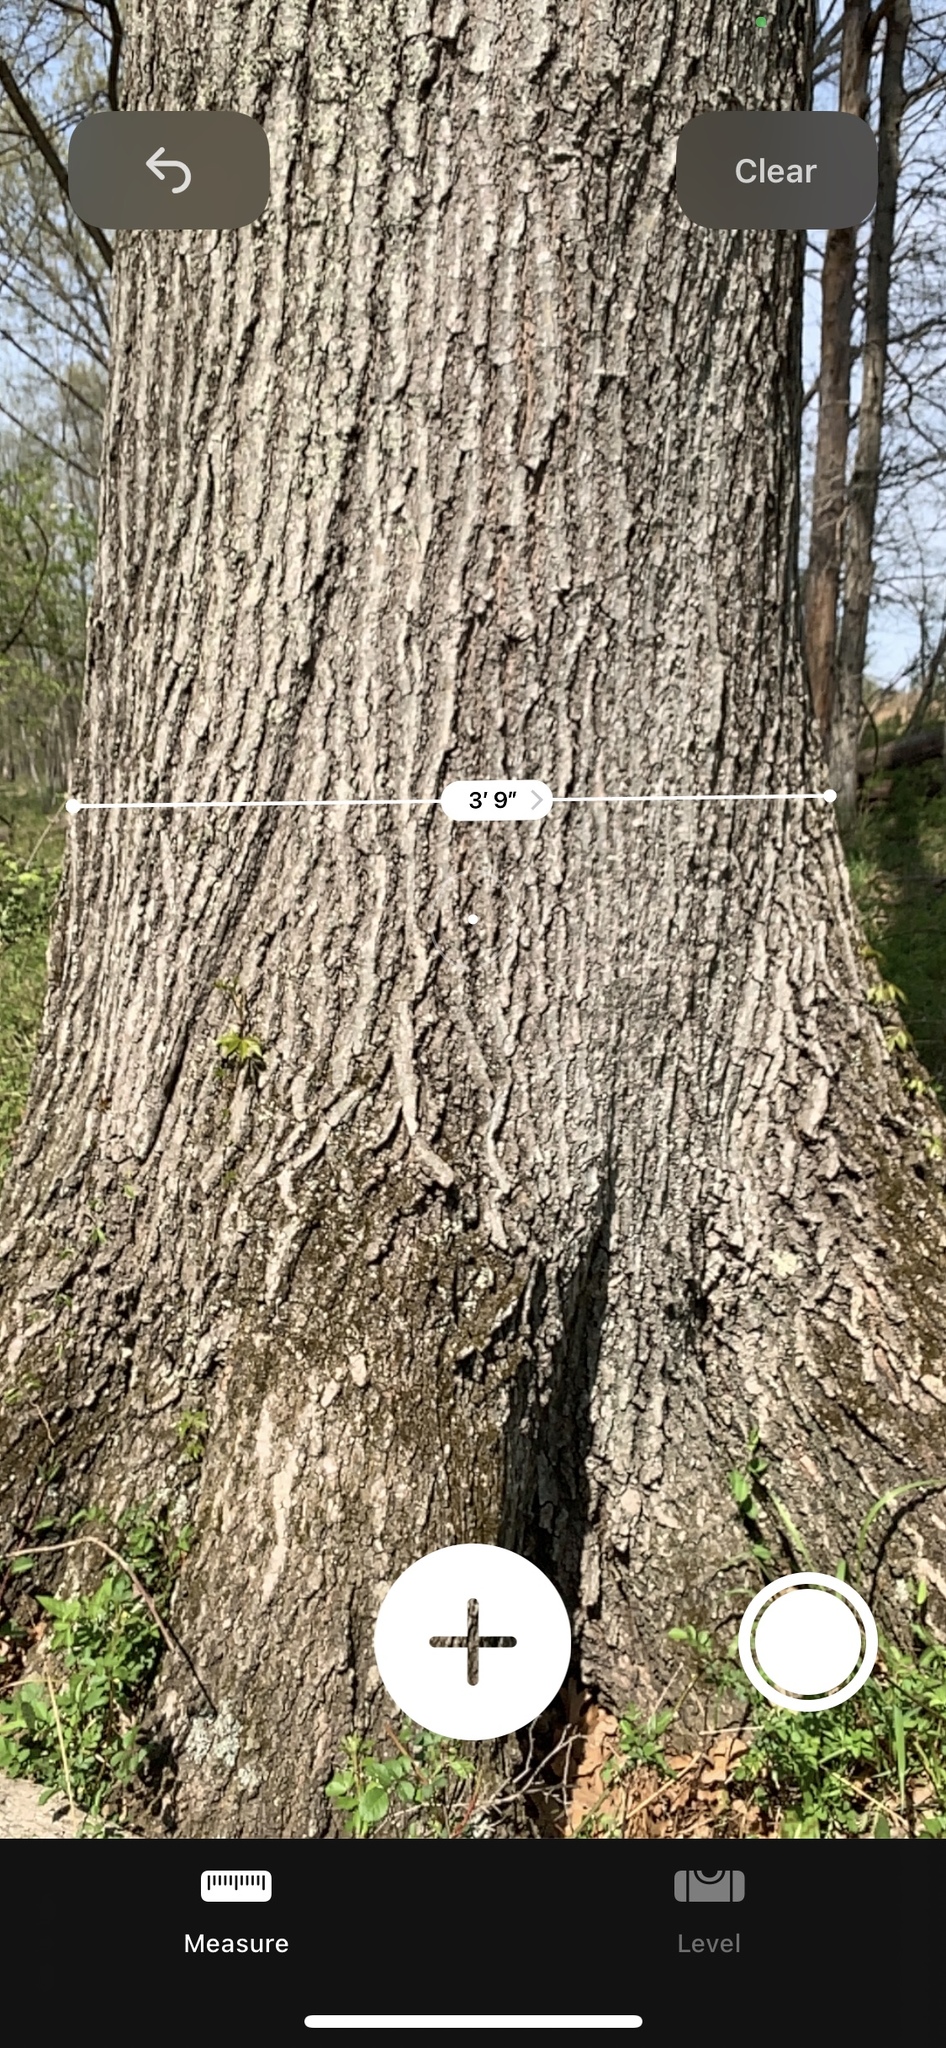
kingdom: Plantae
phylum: Tracheophyta
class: Magnoliopsida
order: Fagales
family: Fagaceae
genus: Quercus
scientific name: Quercus shumardii
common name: Shumard oak
